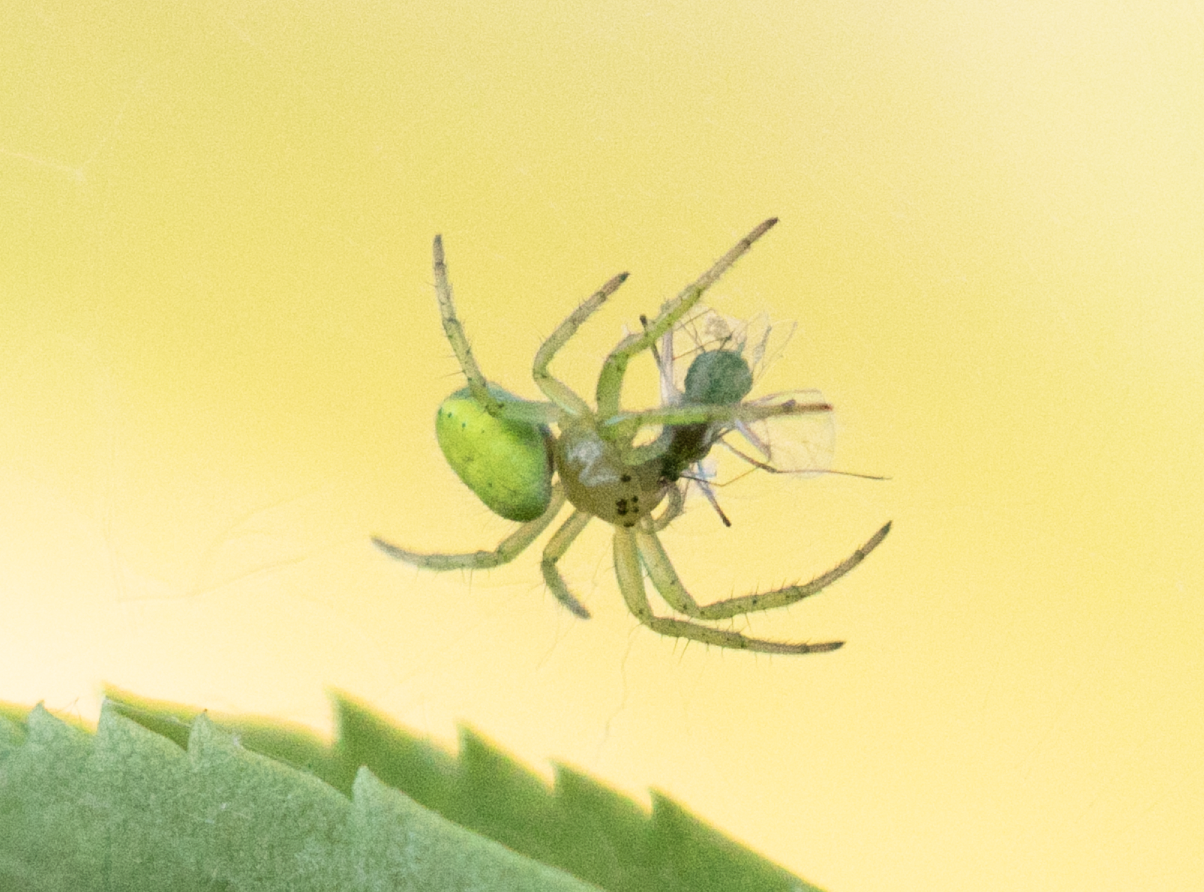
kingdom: Animalia
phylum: Arthropoda
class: Arachnida
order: Araneae
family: Araneidae
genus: Araniella
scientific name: Araniella cucurbitina
